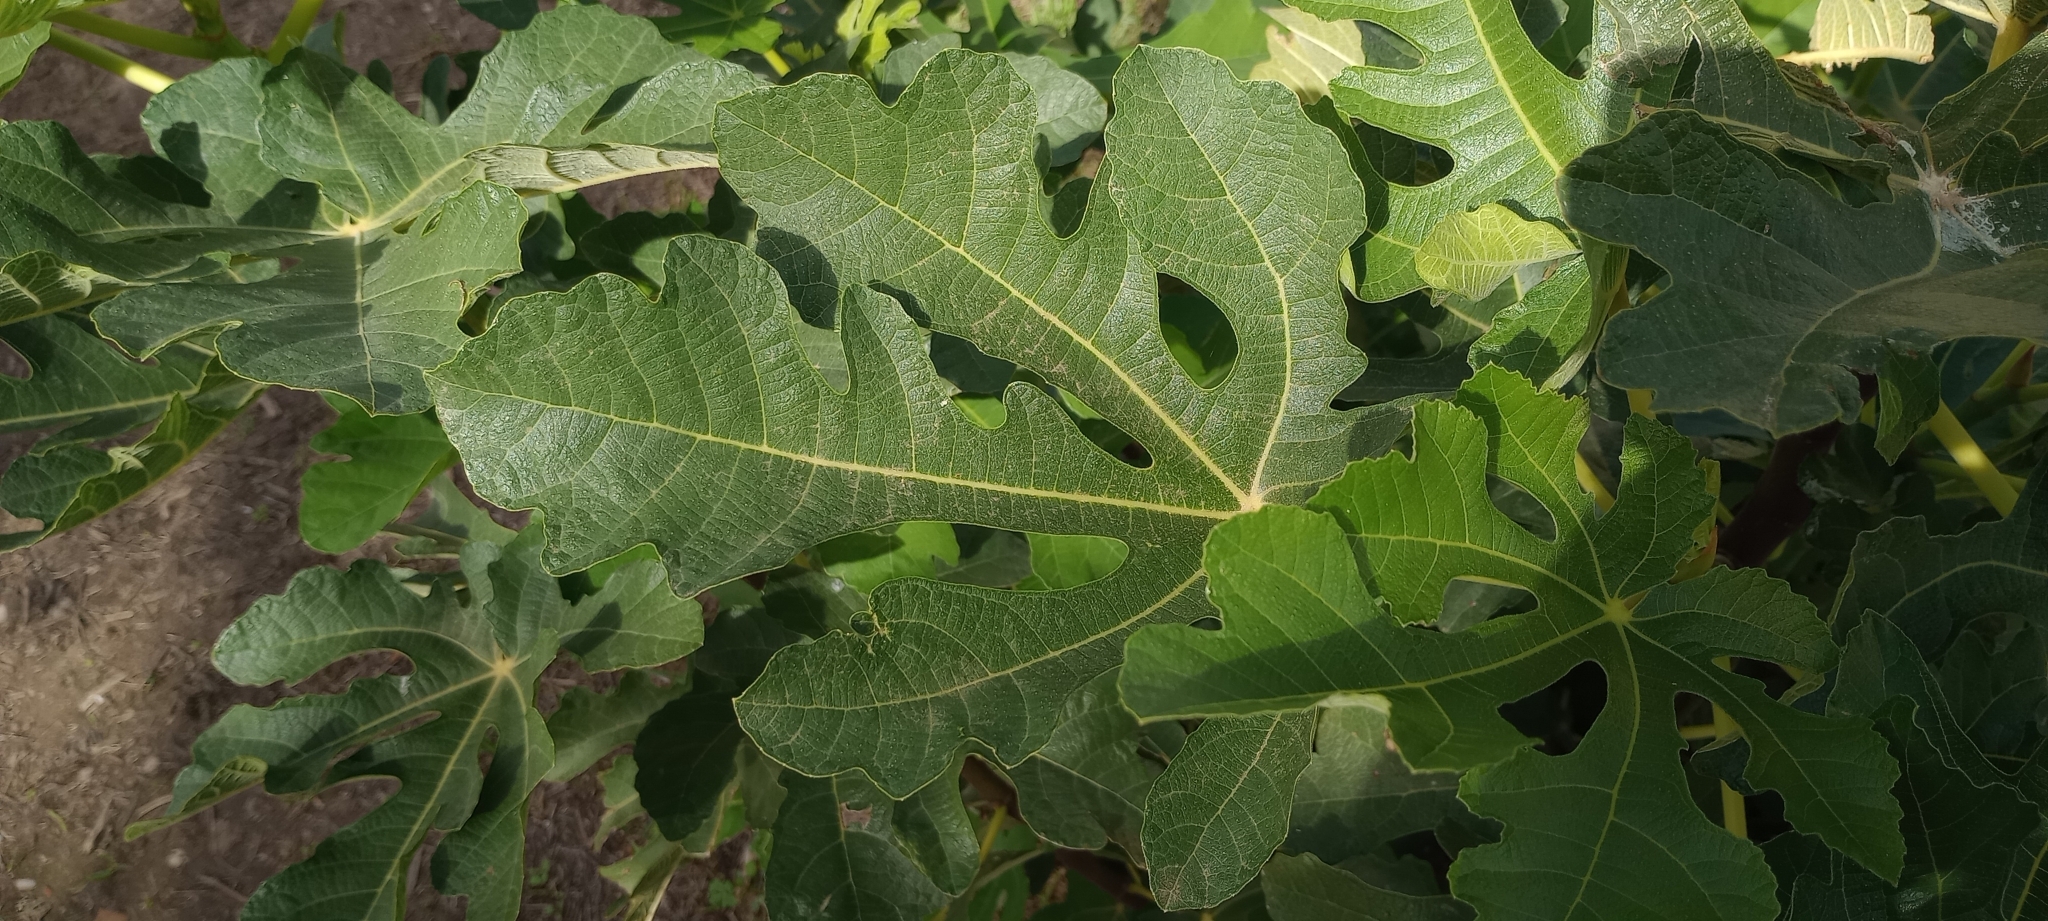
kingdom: Plantae
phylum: Tracheophyta
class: Magnoliopsida
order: Rosales
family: Moraceae
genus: Ficus
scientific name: Ficus carica
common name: Fig
